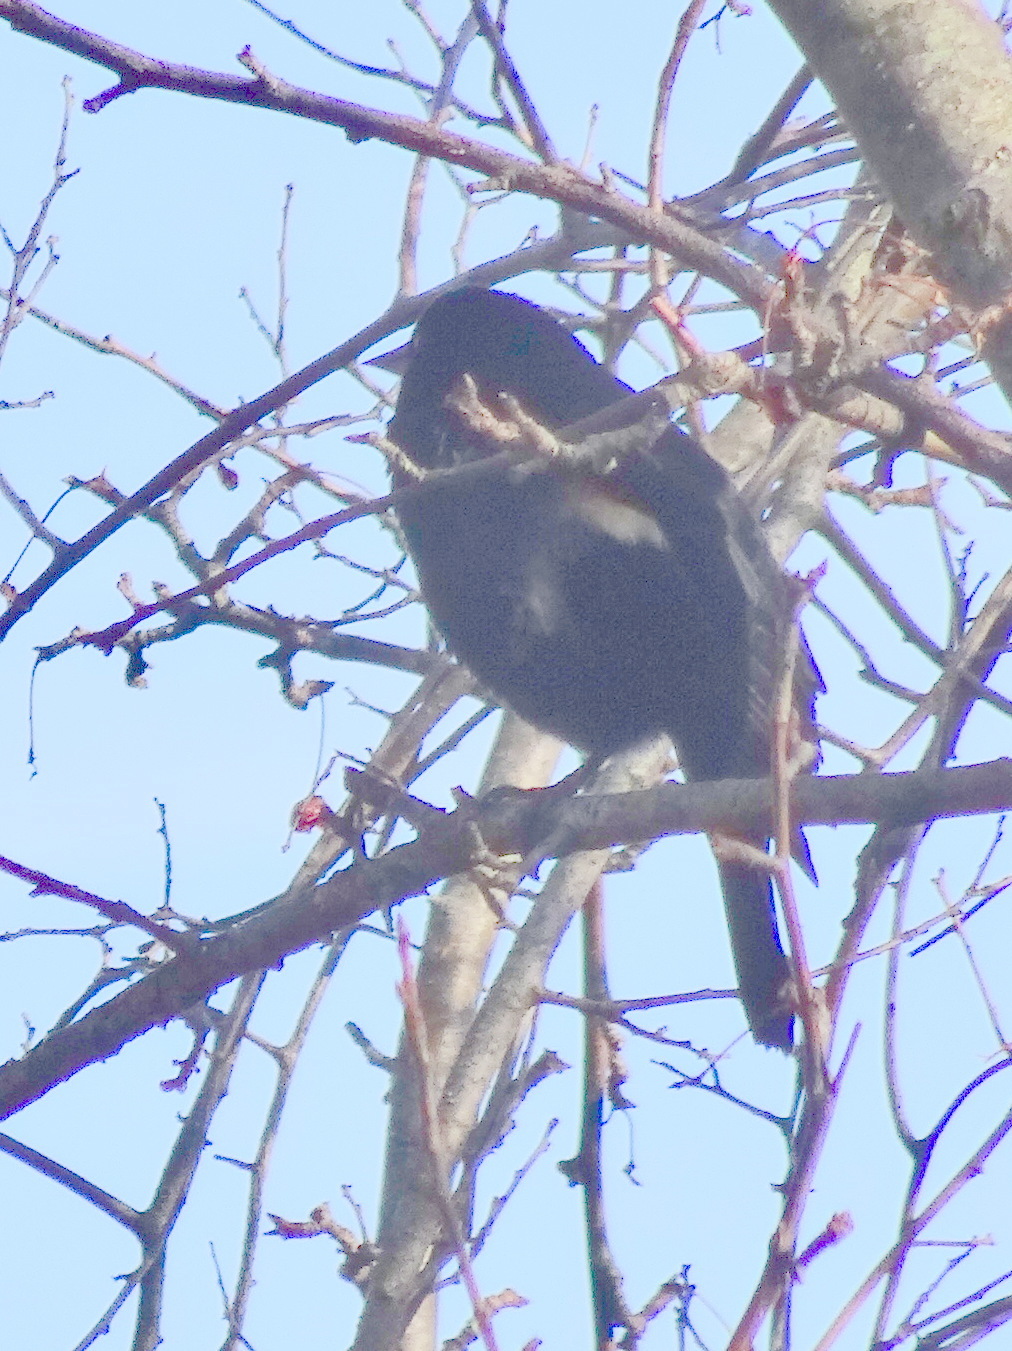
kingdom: Animalia
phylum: Chordata
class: Aves
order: Passeriformes
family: Icteridae
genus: Agelaius
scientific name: Agelaius phoeniceus
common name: Red-winged blackbird
